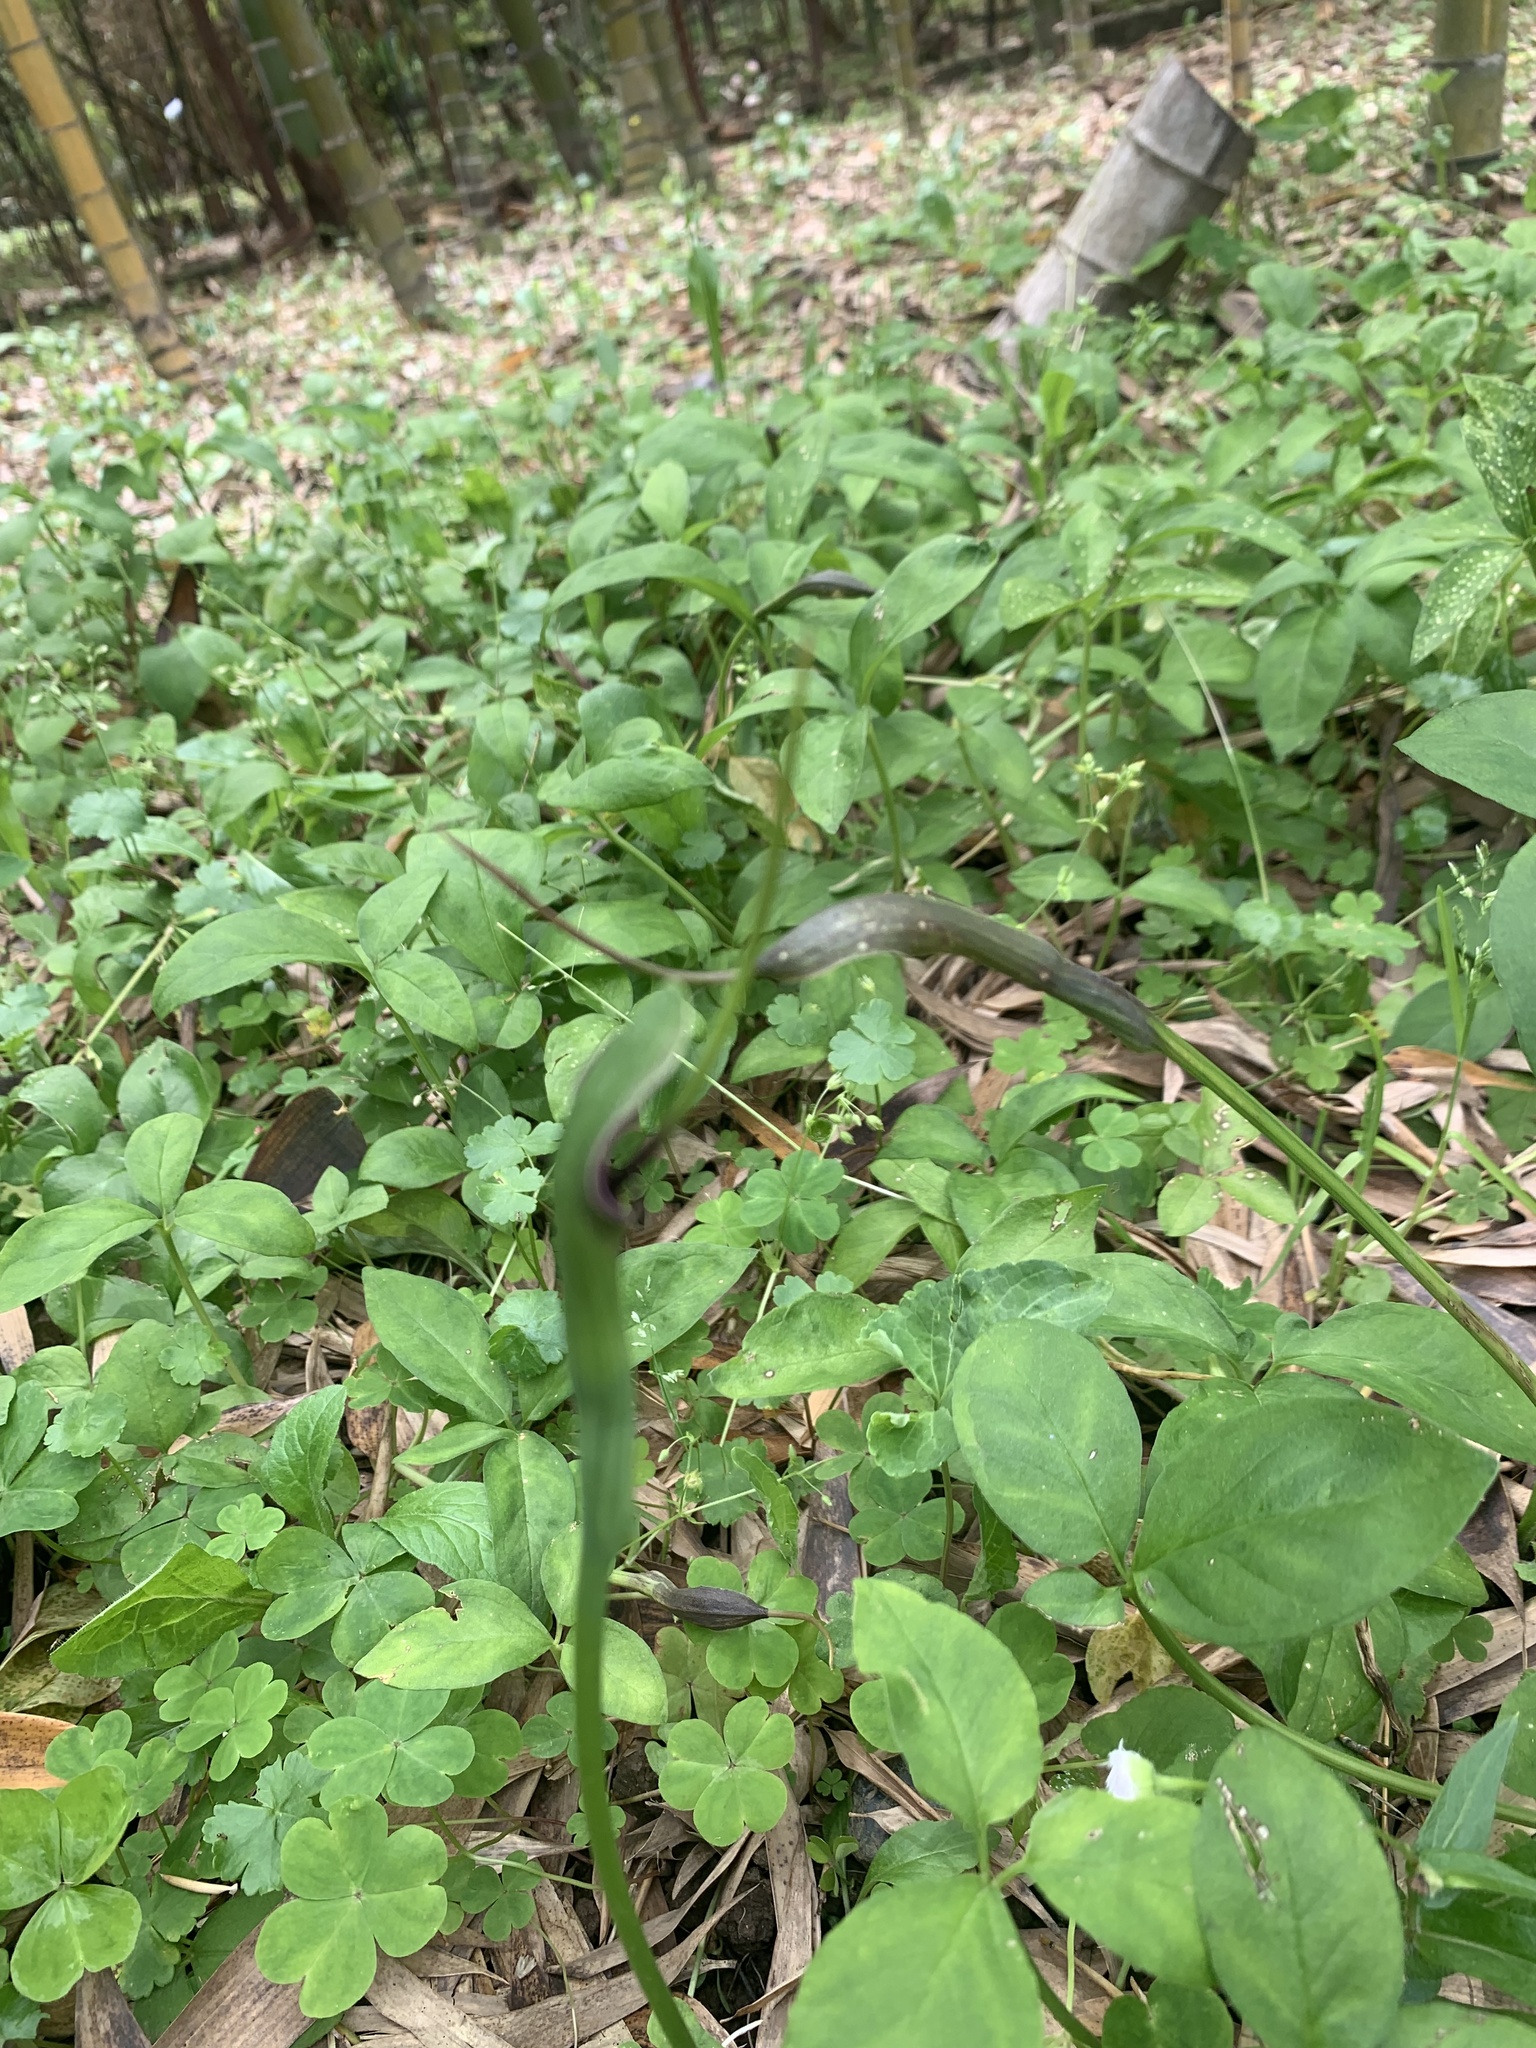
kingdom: Plantae
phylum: Tracheophyta
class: Liliopsida
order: Alismatales
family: Araceae
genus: Pinellia
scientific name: Pinellia ternata
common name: Pinellia
